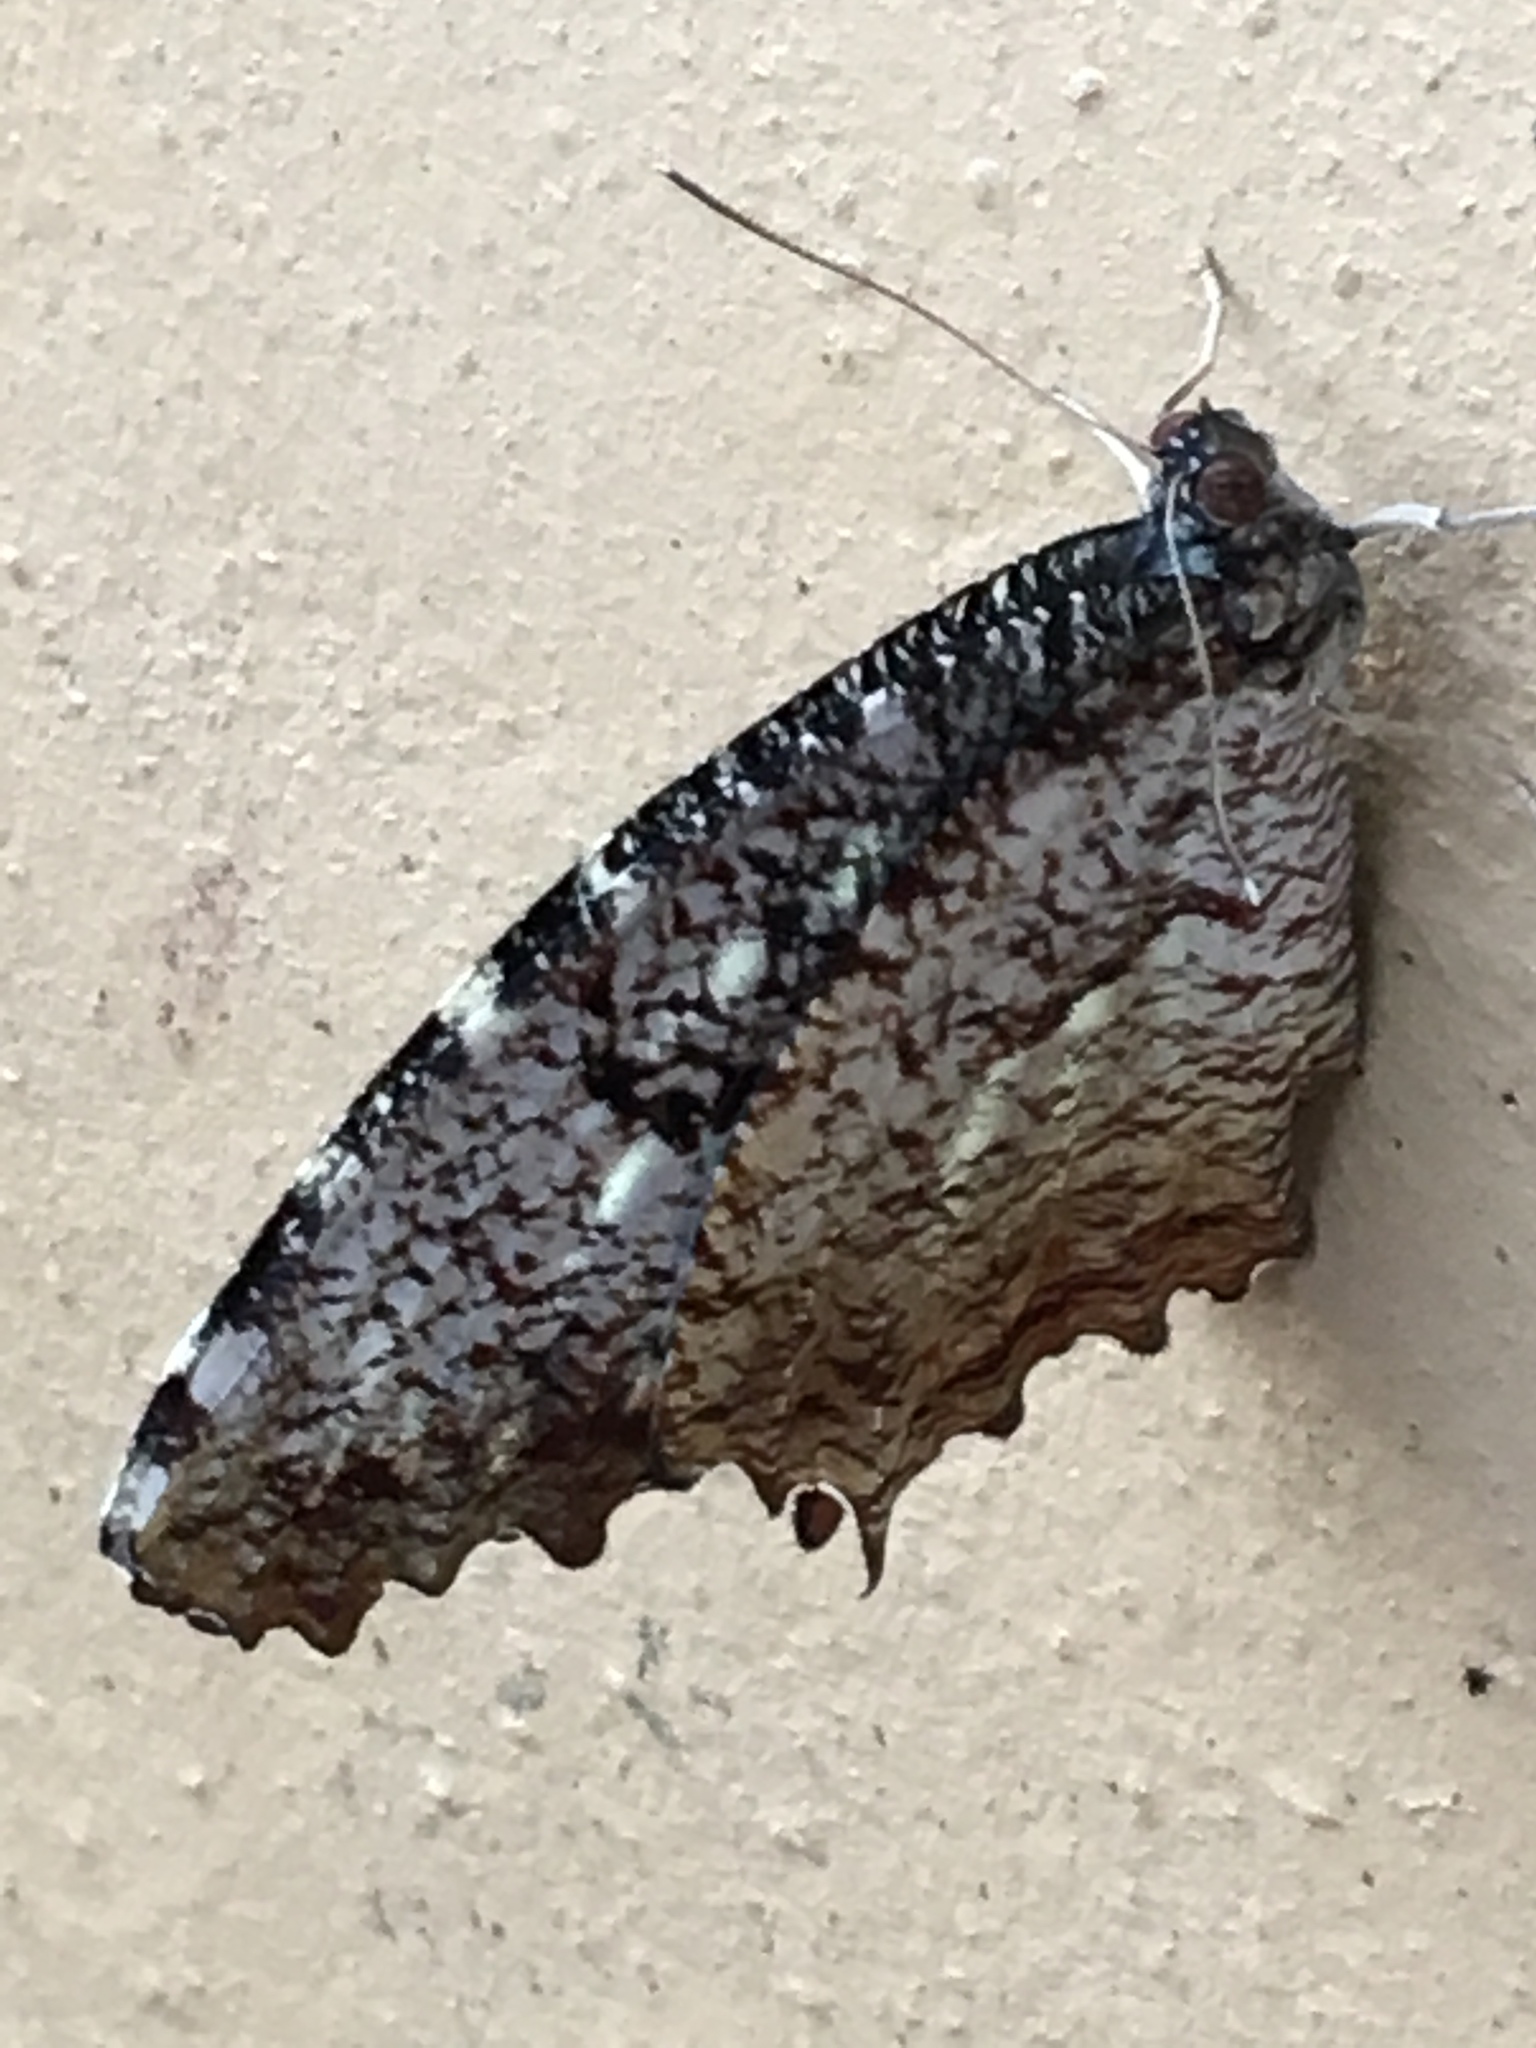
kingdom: Animalia
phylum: Arthropoda
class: Insecta
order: Lepidoptera
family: Nymphalidae
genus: Elymnias
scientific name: Elymnias nesaea
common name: Tiger palmfly
